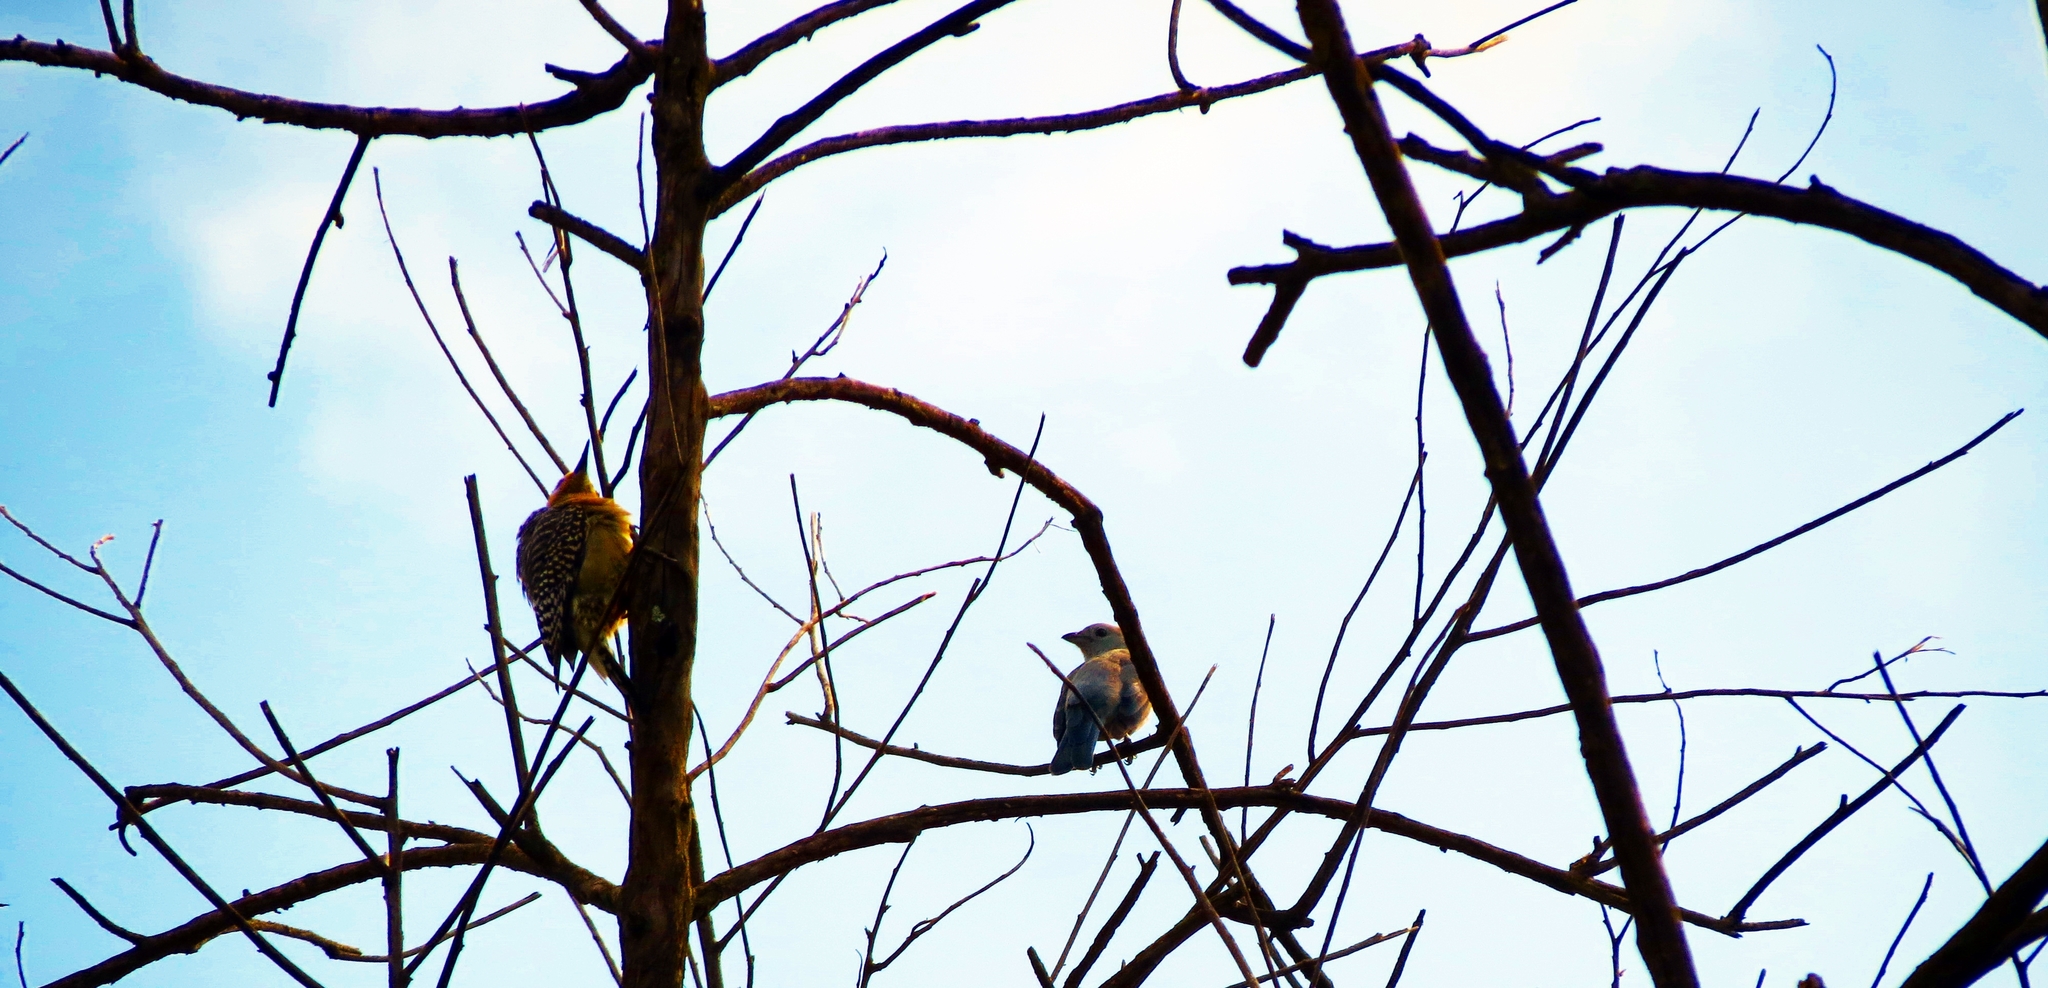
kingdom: Animalia
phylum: Chordata
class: Aves
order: Piciformes
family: Picidae
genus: Melanerpes
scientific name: Melanerpes rubricapillus
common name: Red-crowned woodpecker
